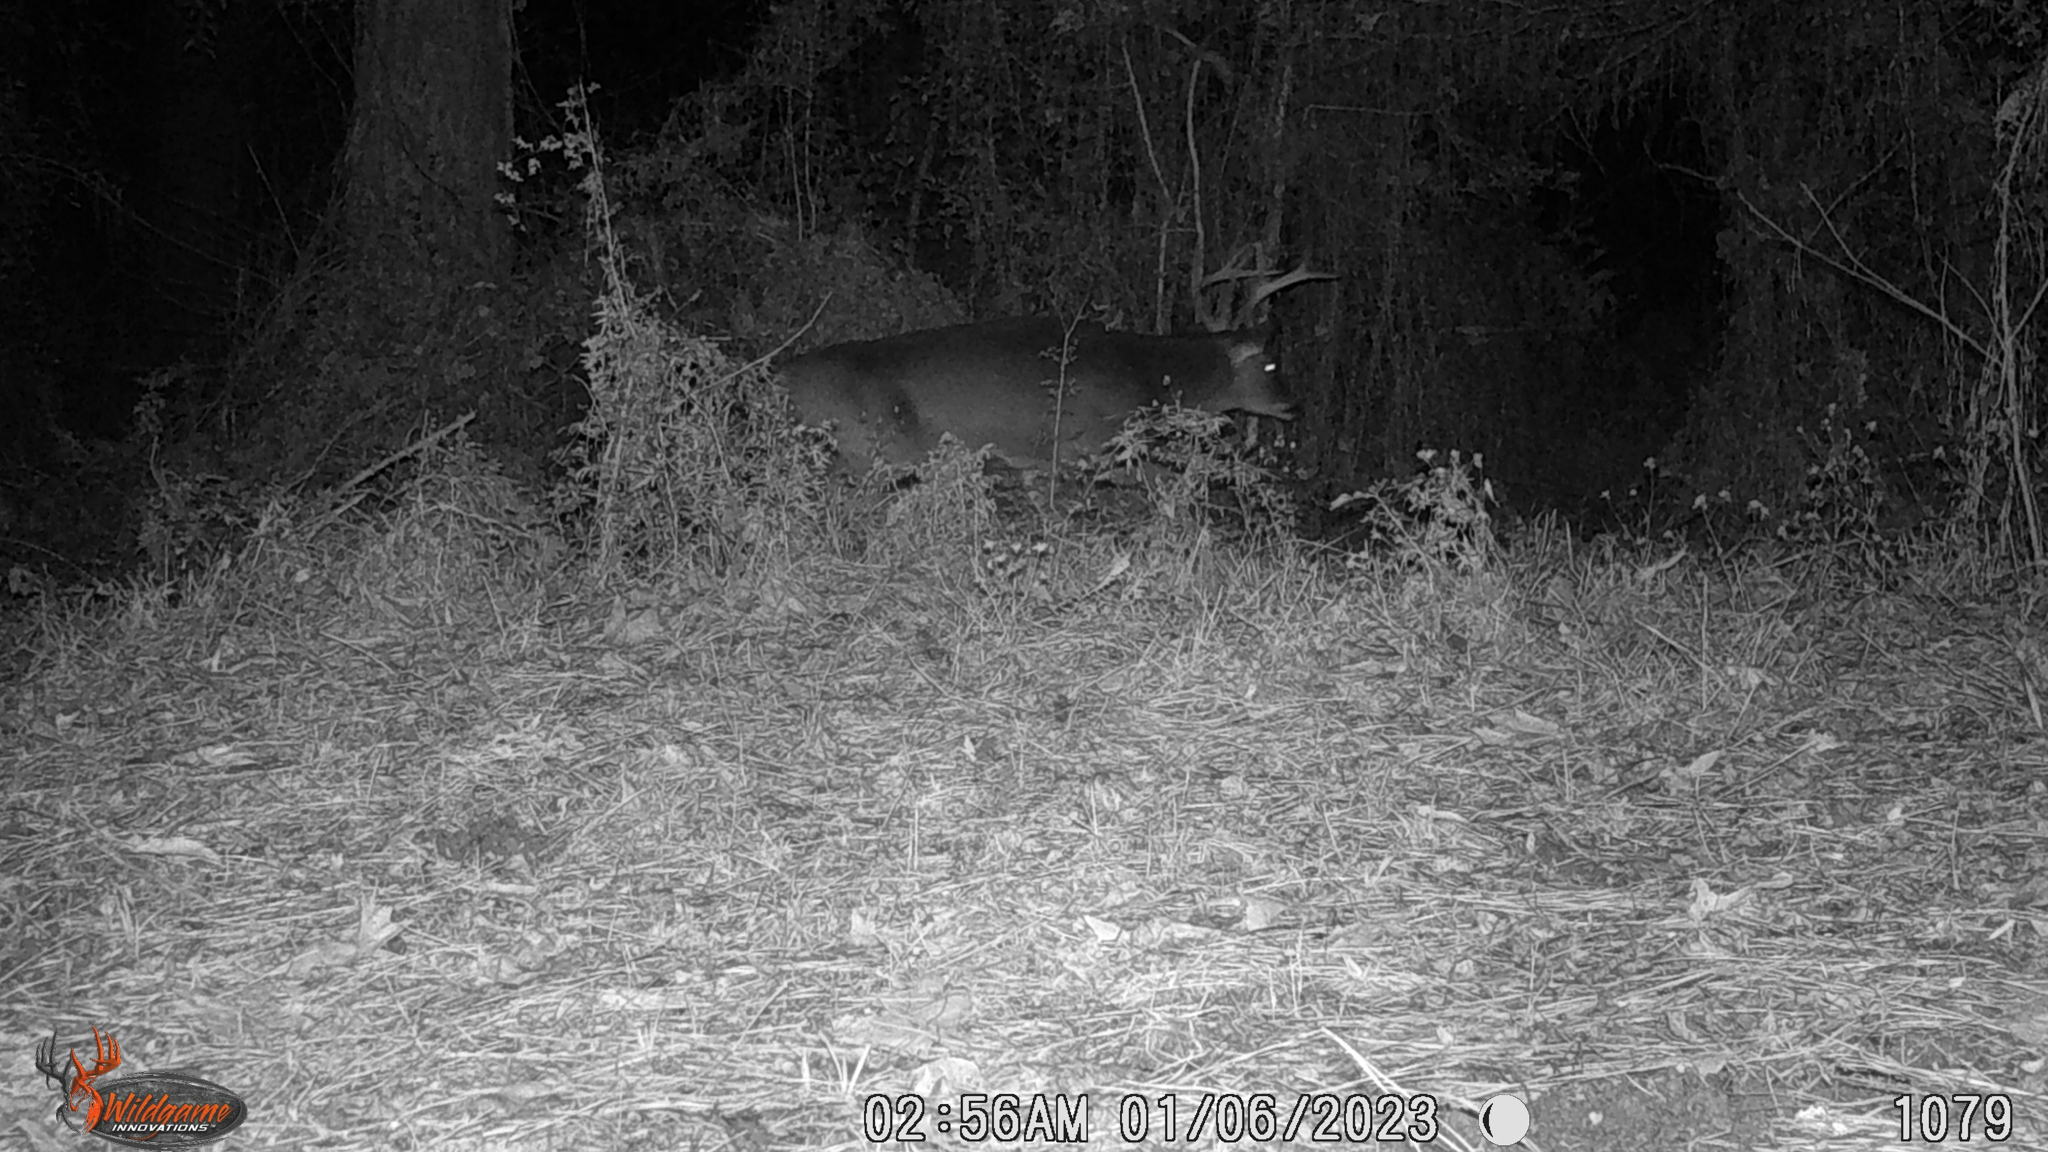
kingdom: Animalia
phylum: Chordata
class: Mammalia
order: Artiodactyla
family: Cervidae
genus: Odocoileus
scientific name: Odocoileus virginianus
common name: White-tailed deer
